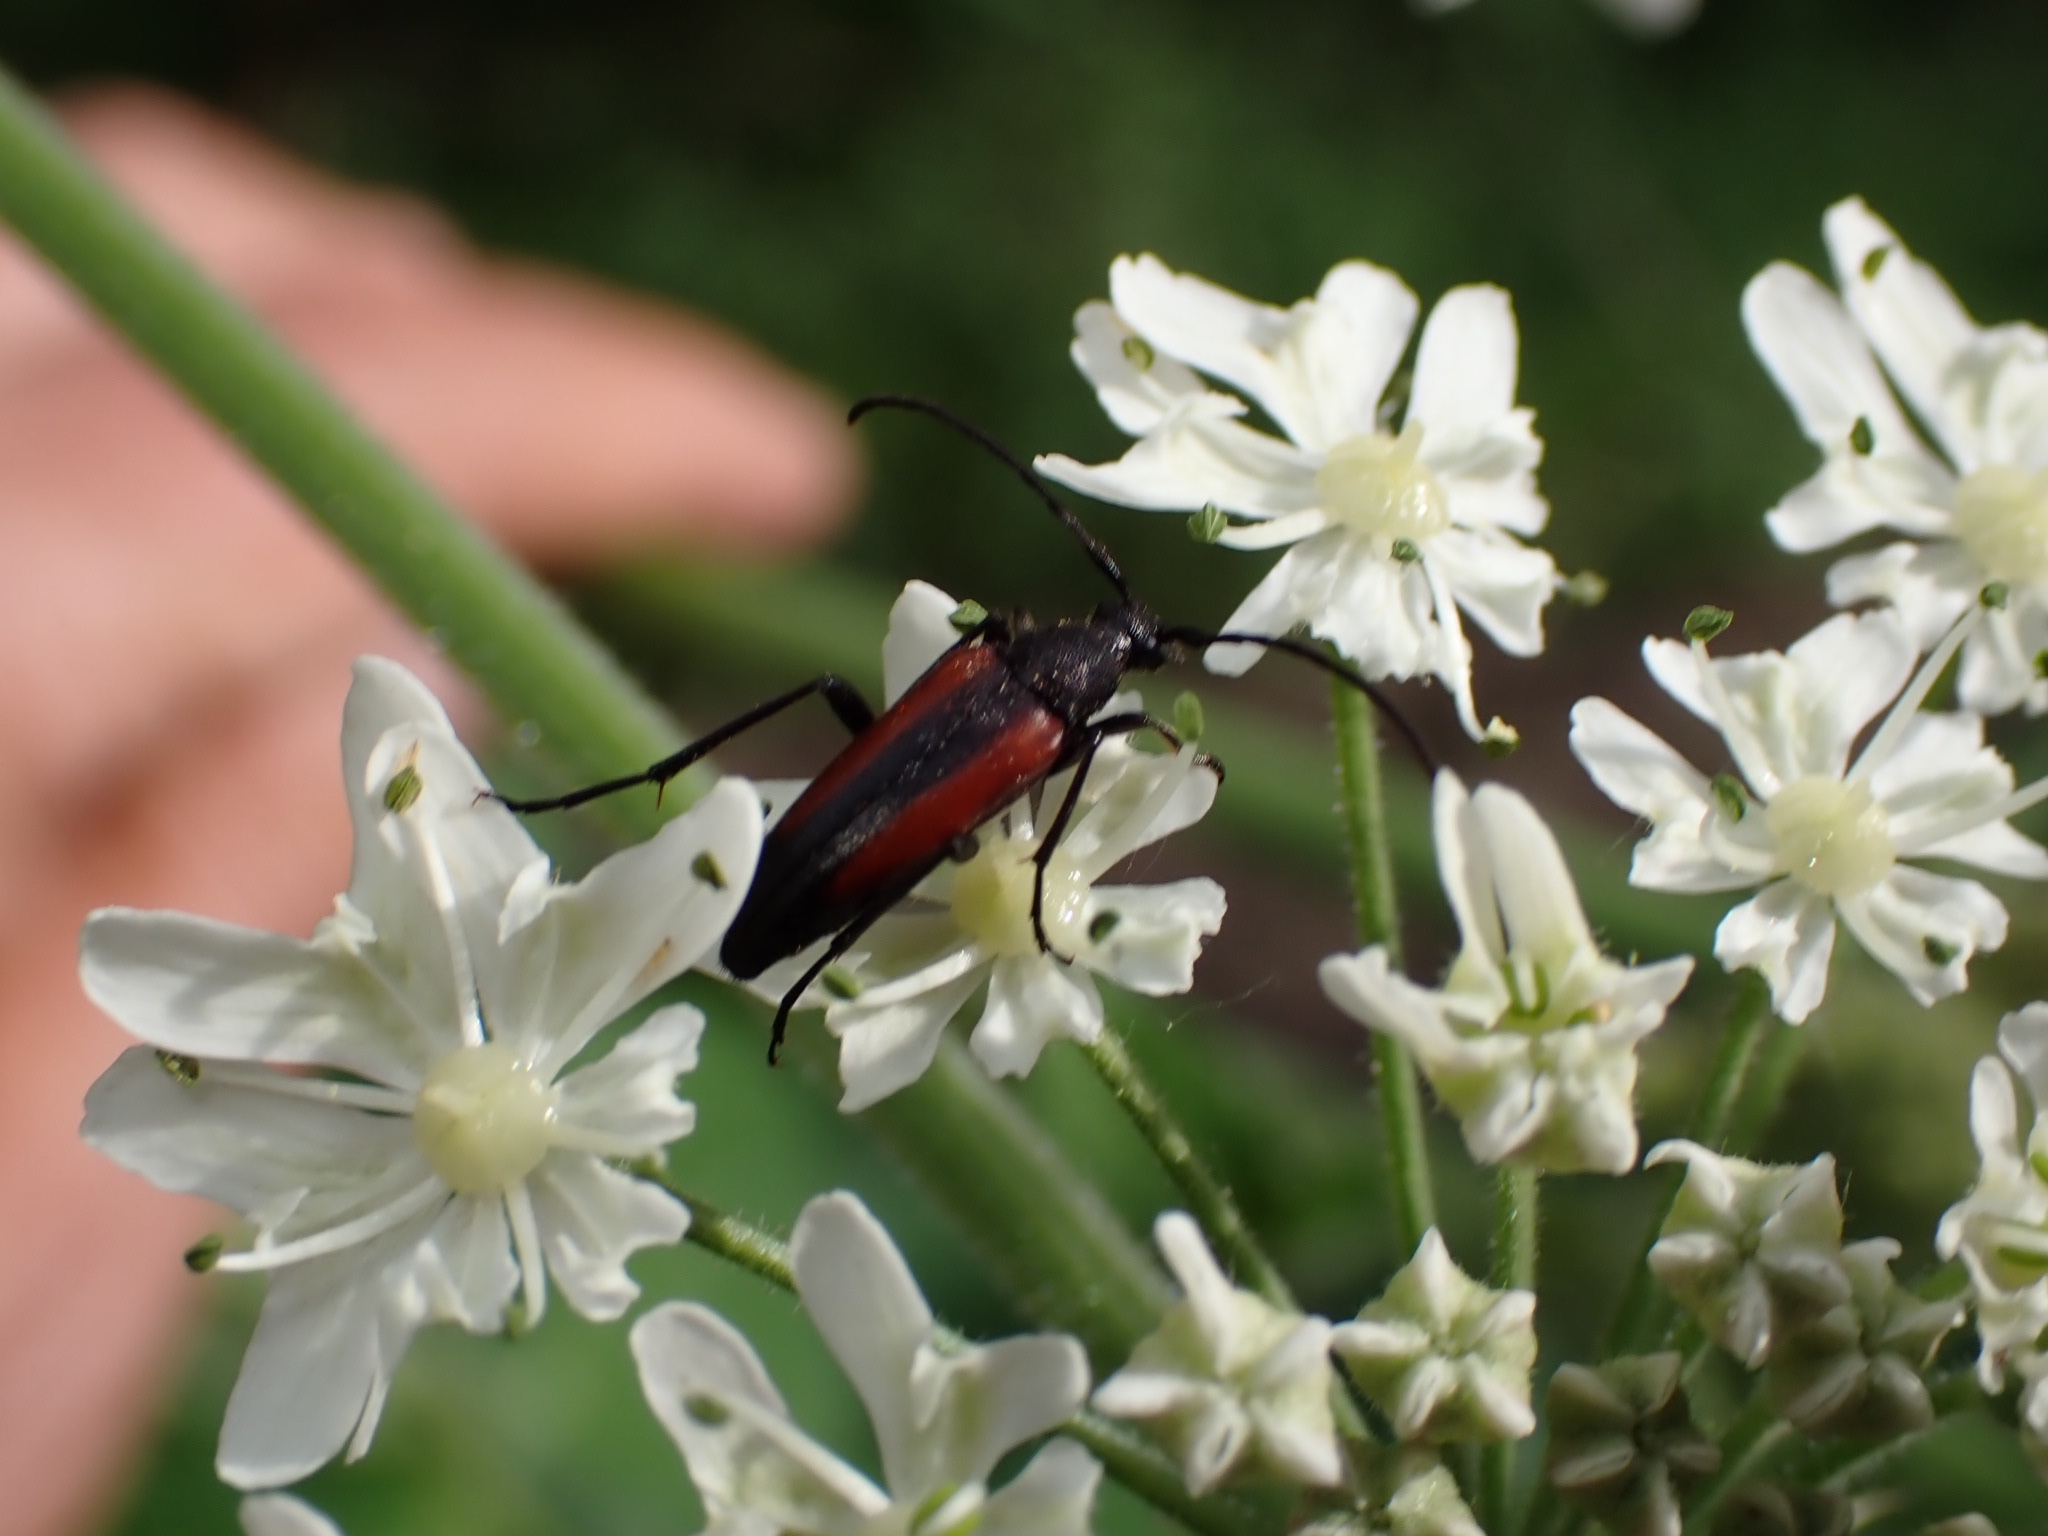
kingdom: Animalia
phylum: Arthropoda
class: Insecta
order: Coleoptera
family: Cerambycidae
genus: Stenurella
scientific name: Stenurella melanura
